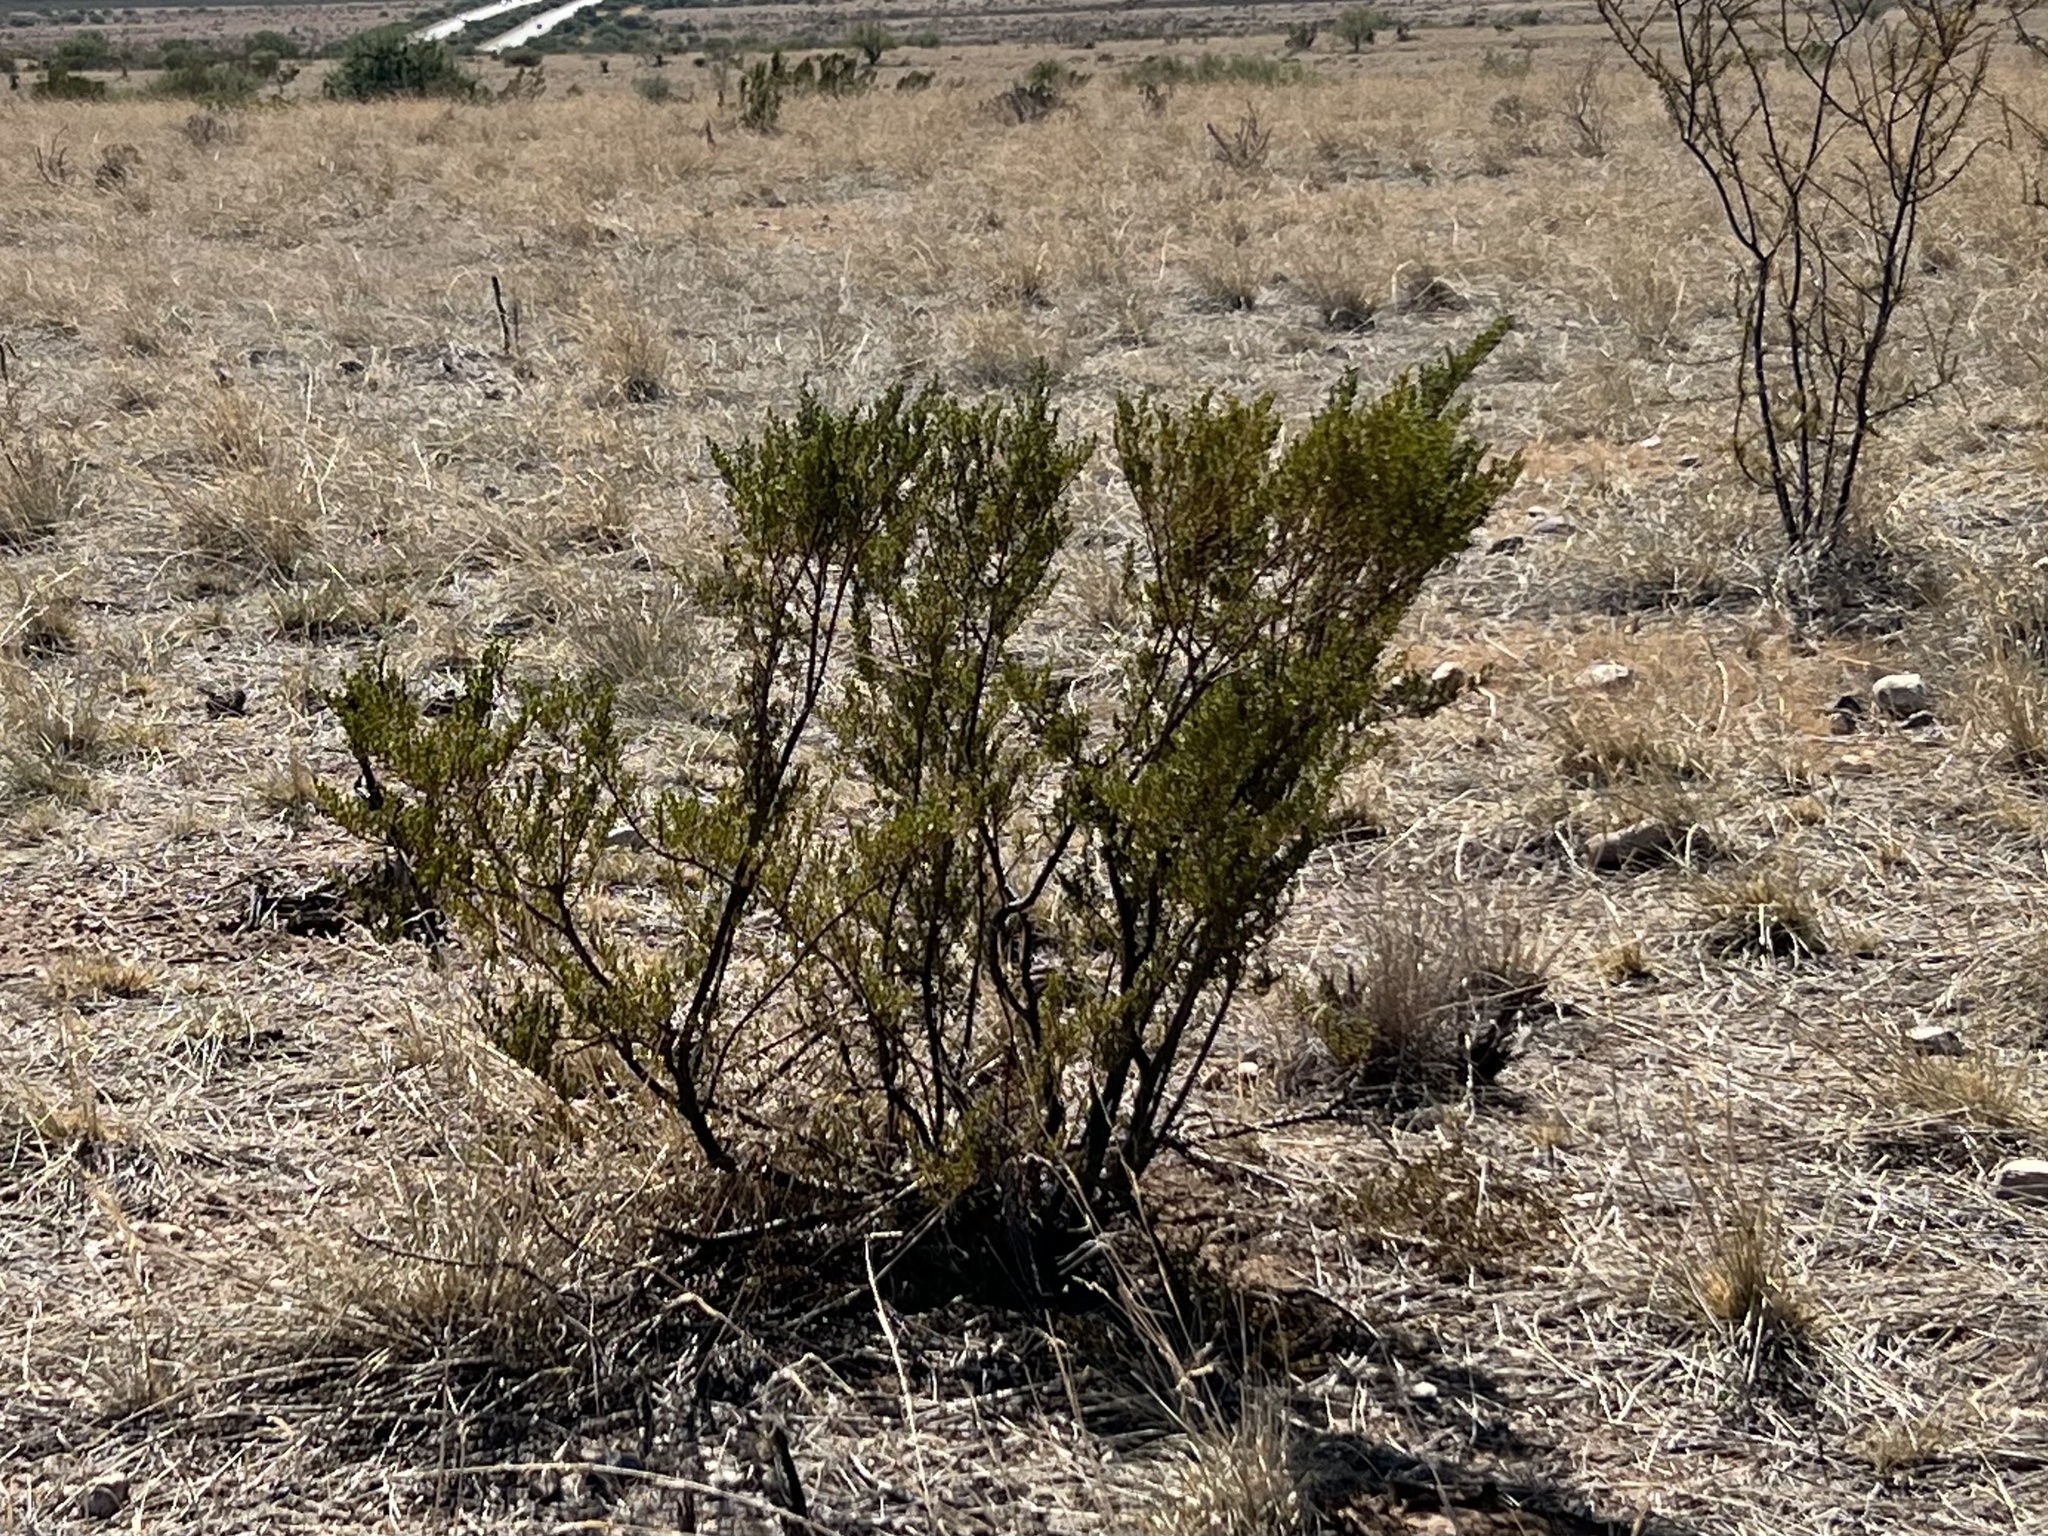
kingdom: Plantae
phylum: Tracheophyta
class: Magnoliopsida
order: Zygophyllales
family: Zygophyllaceae
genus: Larrea
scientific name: Larrea tridentata
